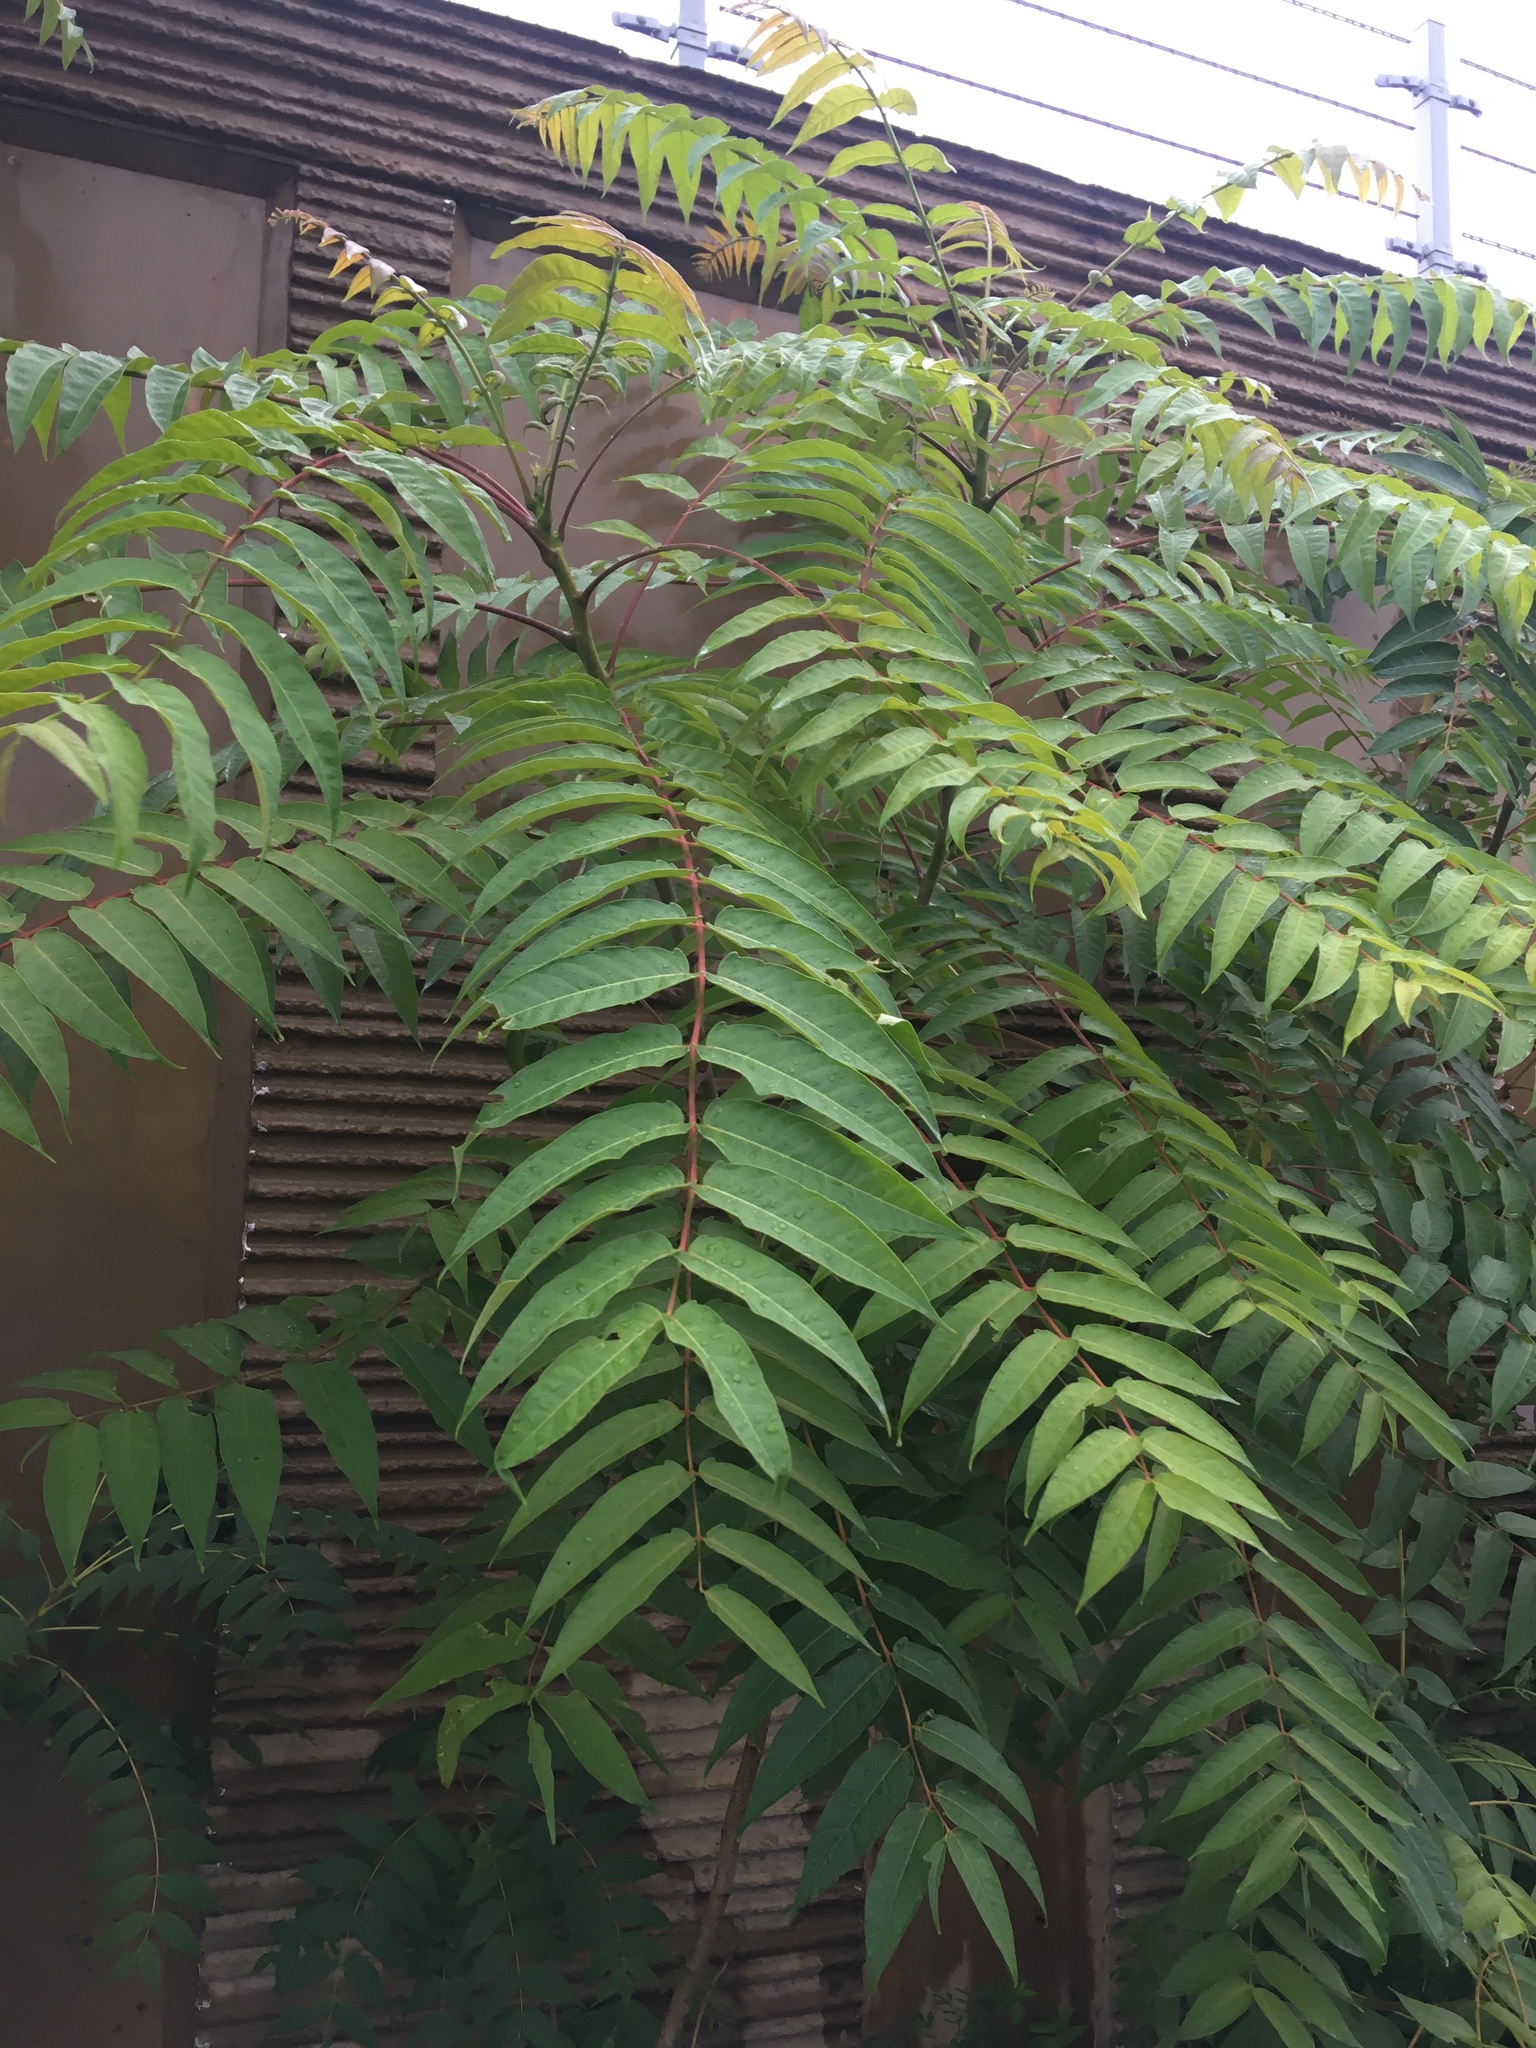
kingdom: Plantae
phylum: Tracheophyta
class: Magnoliopsida
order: Sapindales
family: Simaroubaceae
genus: Ailanthus
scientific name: Ailanthus altissima
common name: Tree-of-heaven
